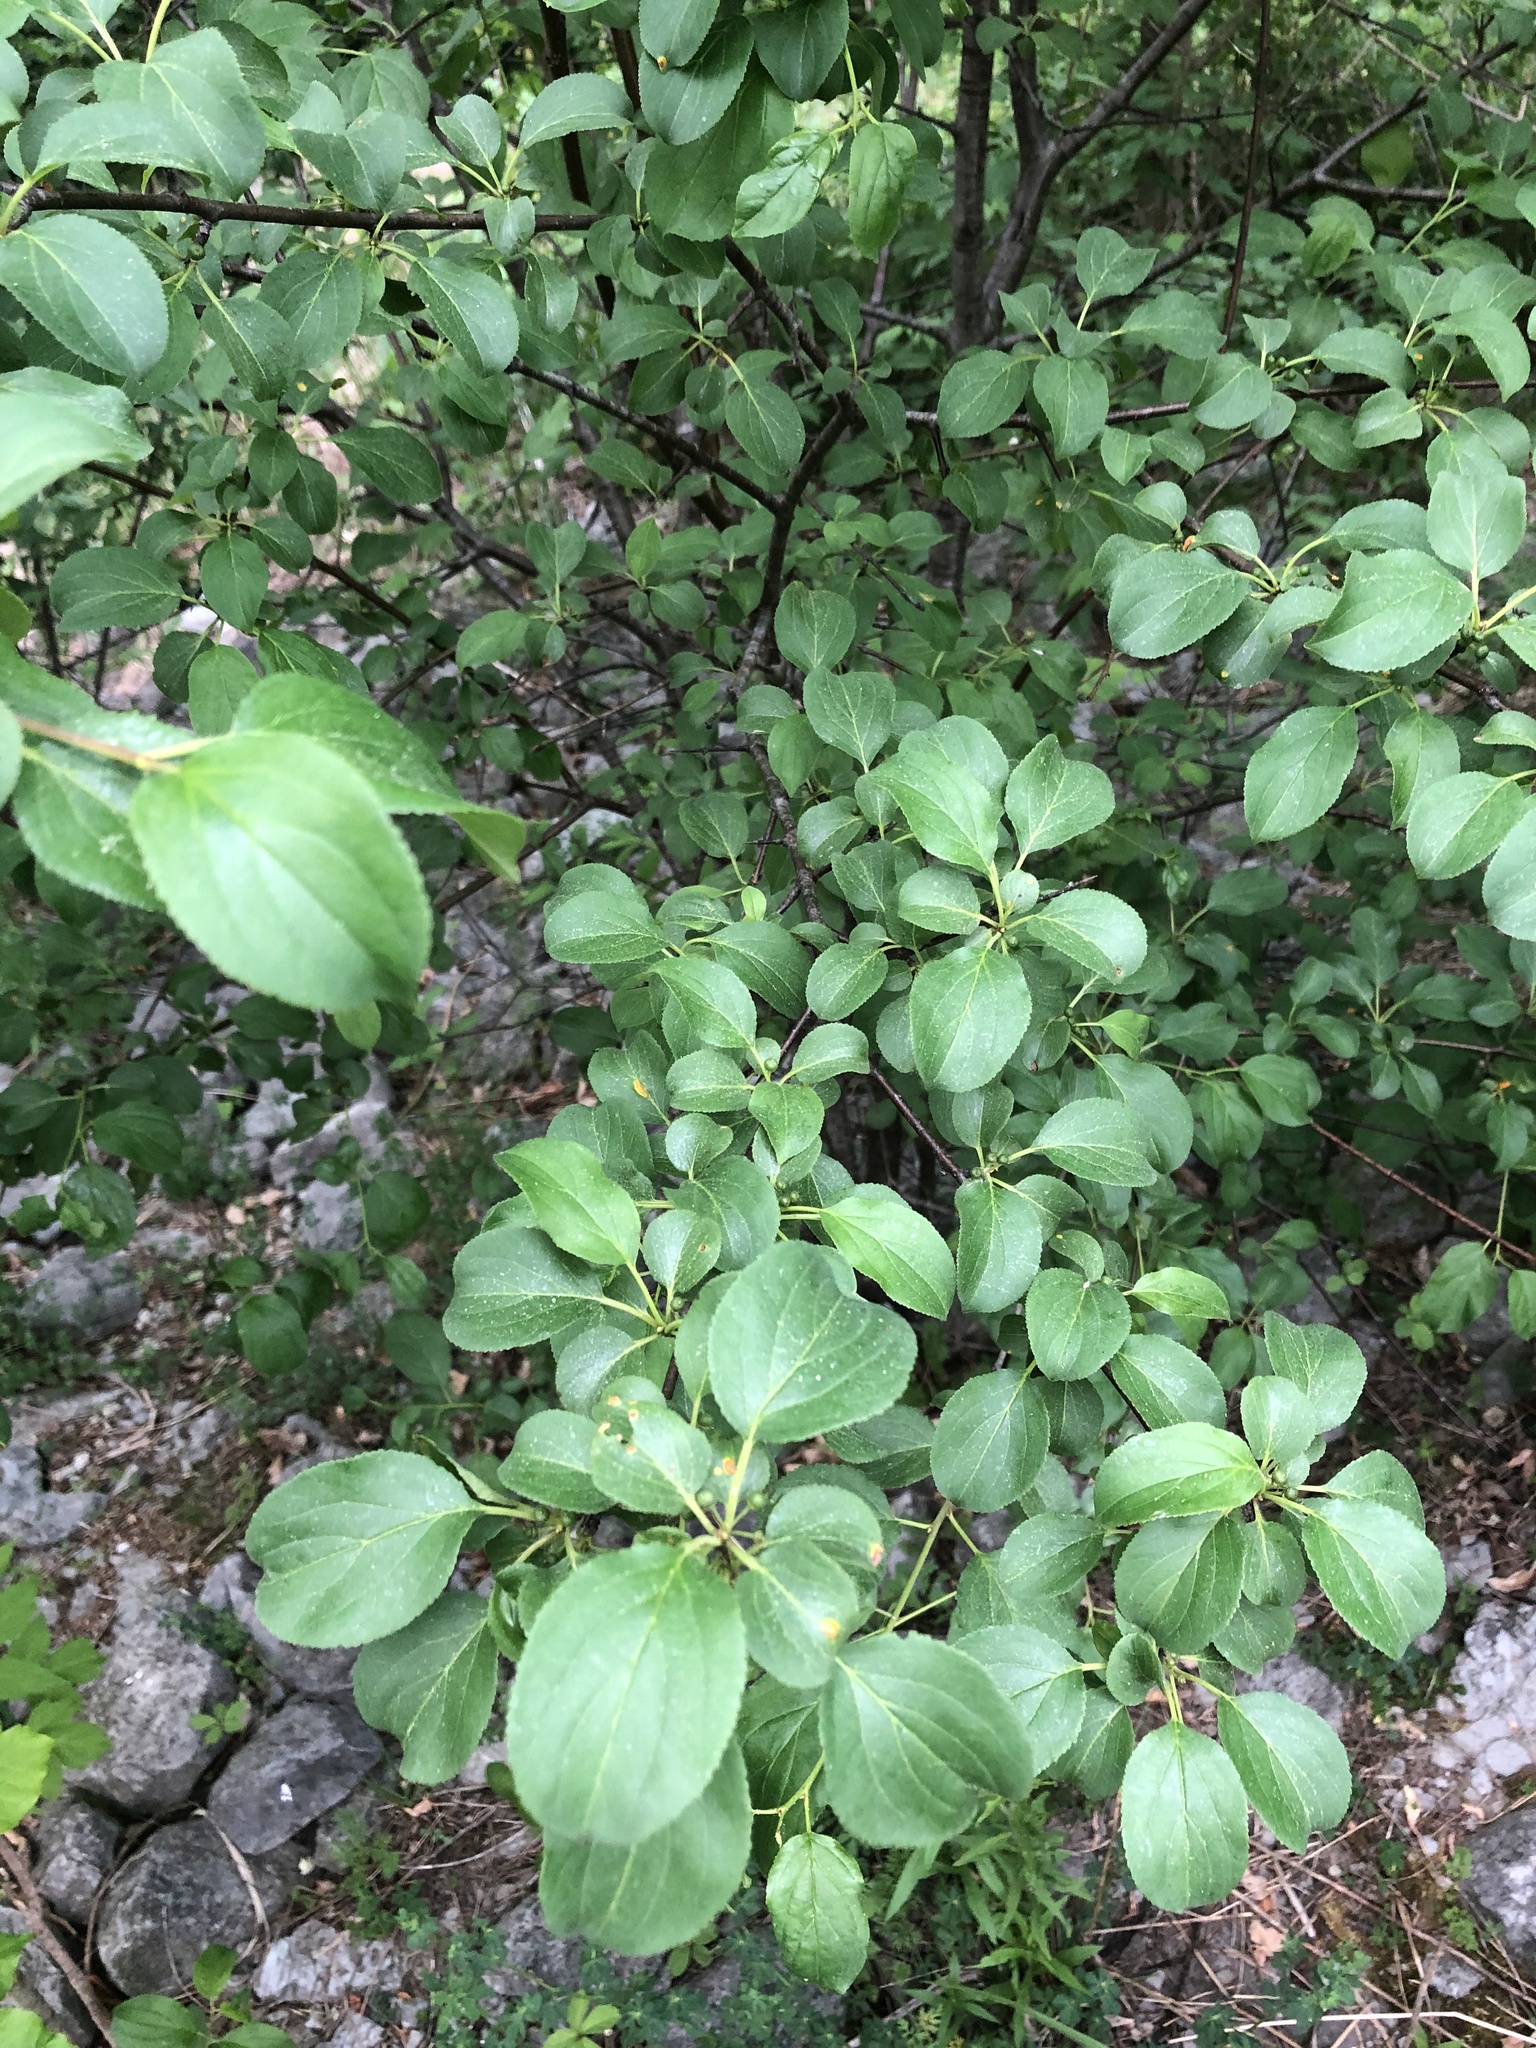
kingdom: Plantae
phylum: Tracheophyta
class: Magnoliopsida
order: Rosales
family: Rhamnaceae
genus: Rhamnus
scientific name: Rhamnus cathartica
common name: Common buckthorn
